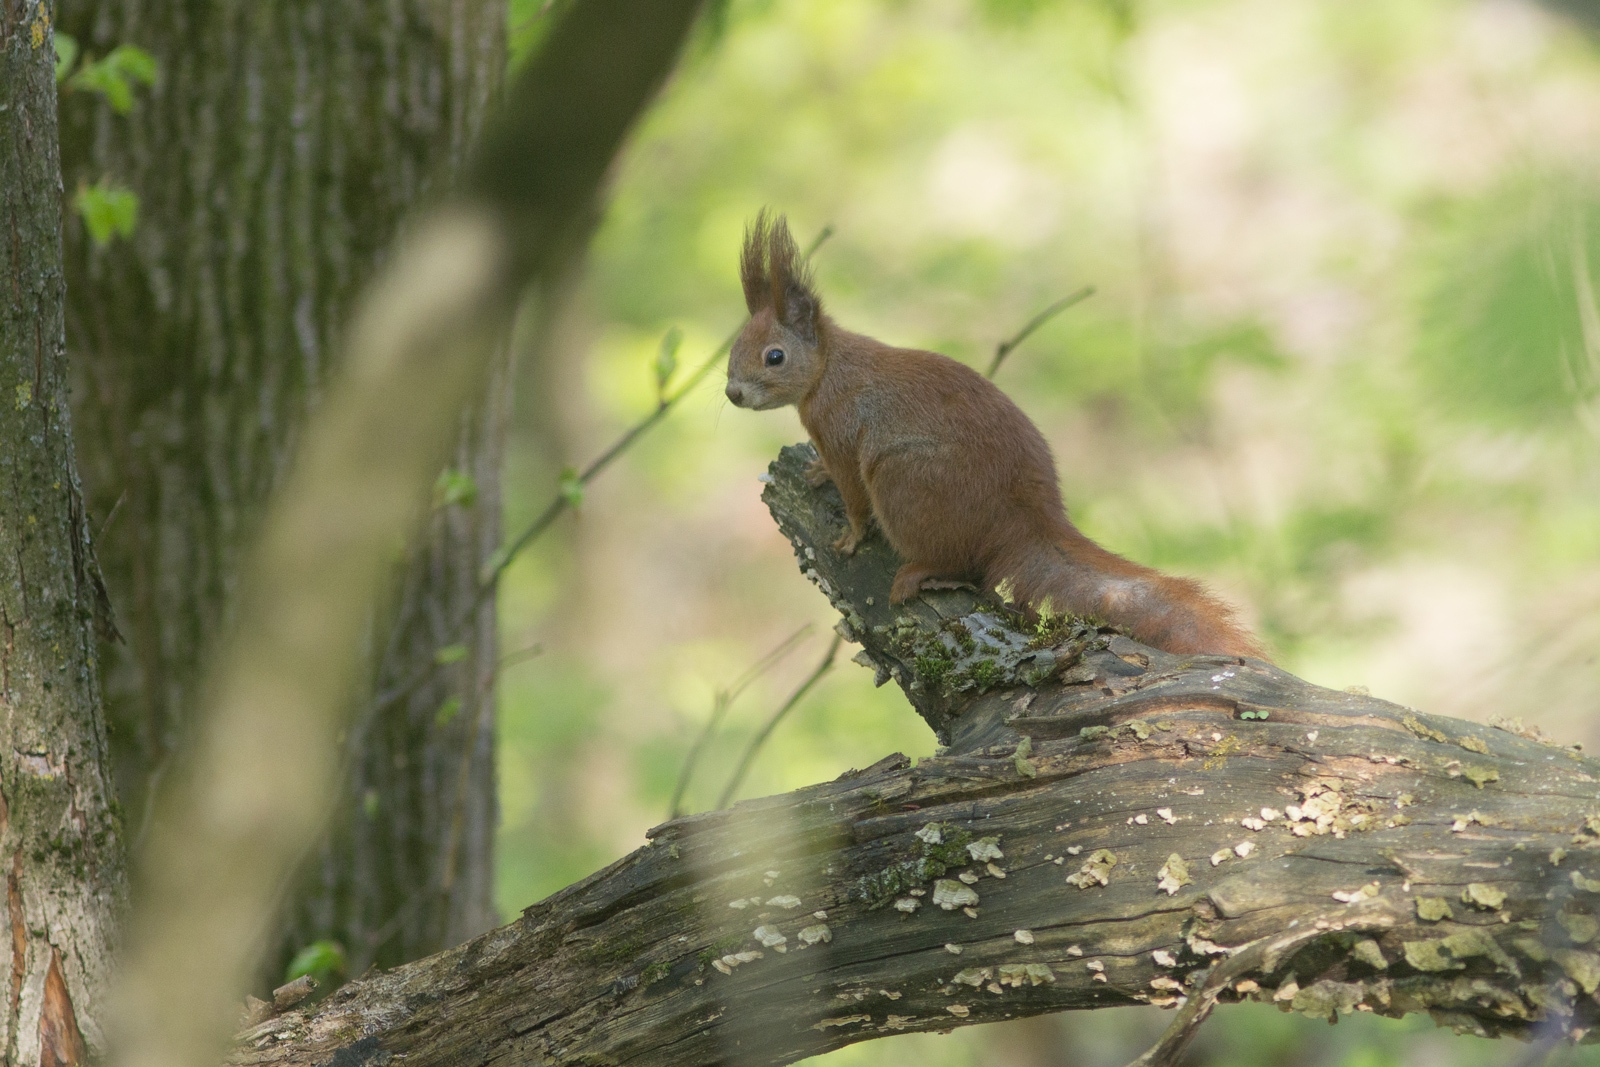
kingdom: Animalia
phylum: Chordata
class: Mammalia
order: Rodentia
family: Sciuridae
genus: Sciurus
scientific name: Sciurus vulgaris
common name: Eurasian red squirrel
